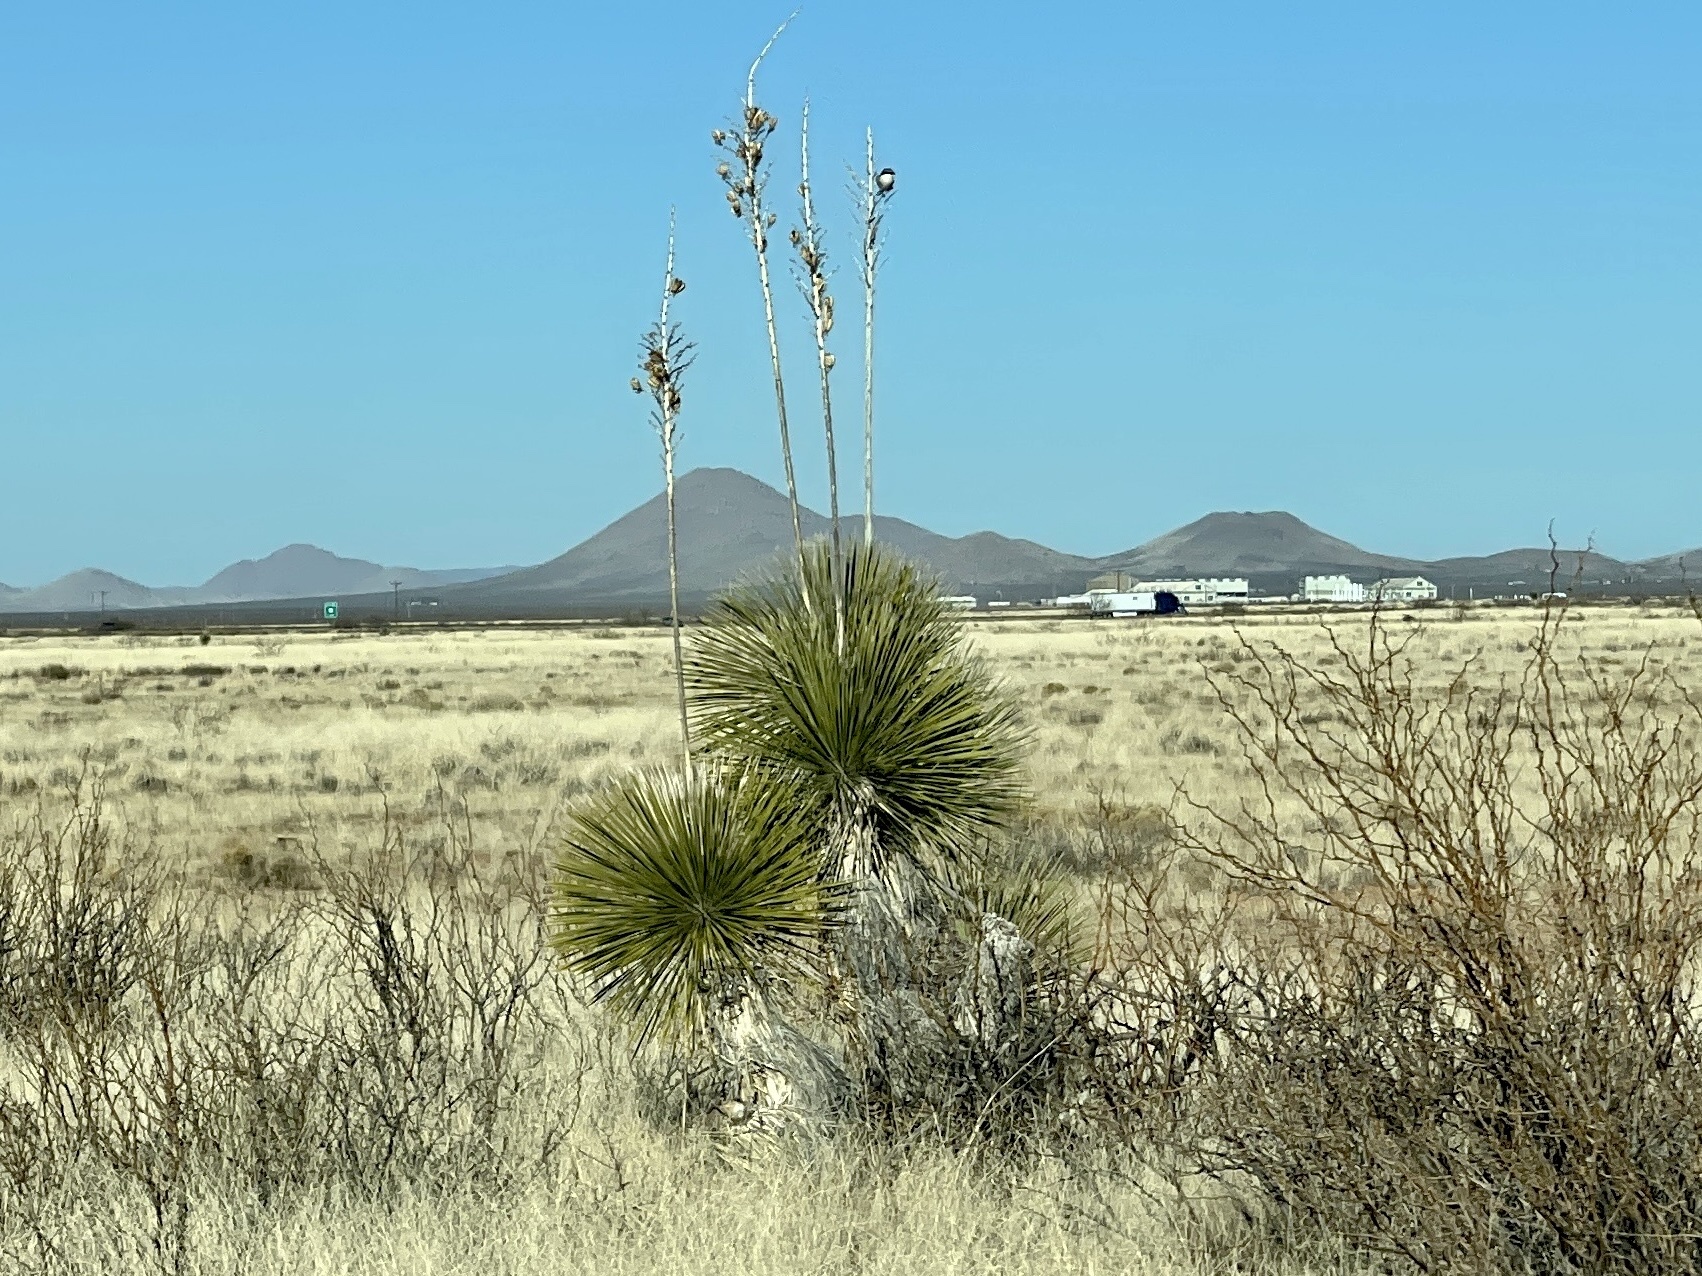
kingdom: Plantae
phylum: Tracheophyta
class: Liliopsida
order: Asparagales
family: Asparagaceae
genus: Yucca
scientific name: Yucca elata
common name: Palmella
